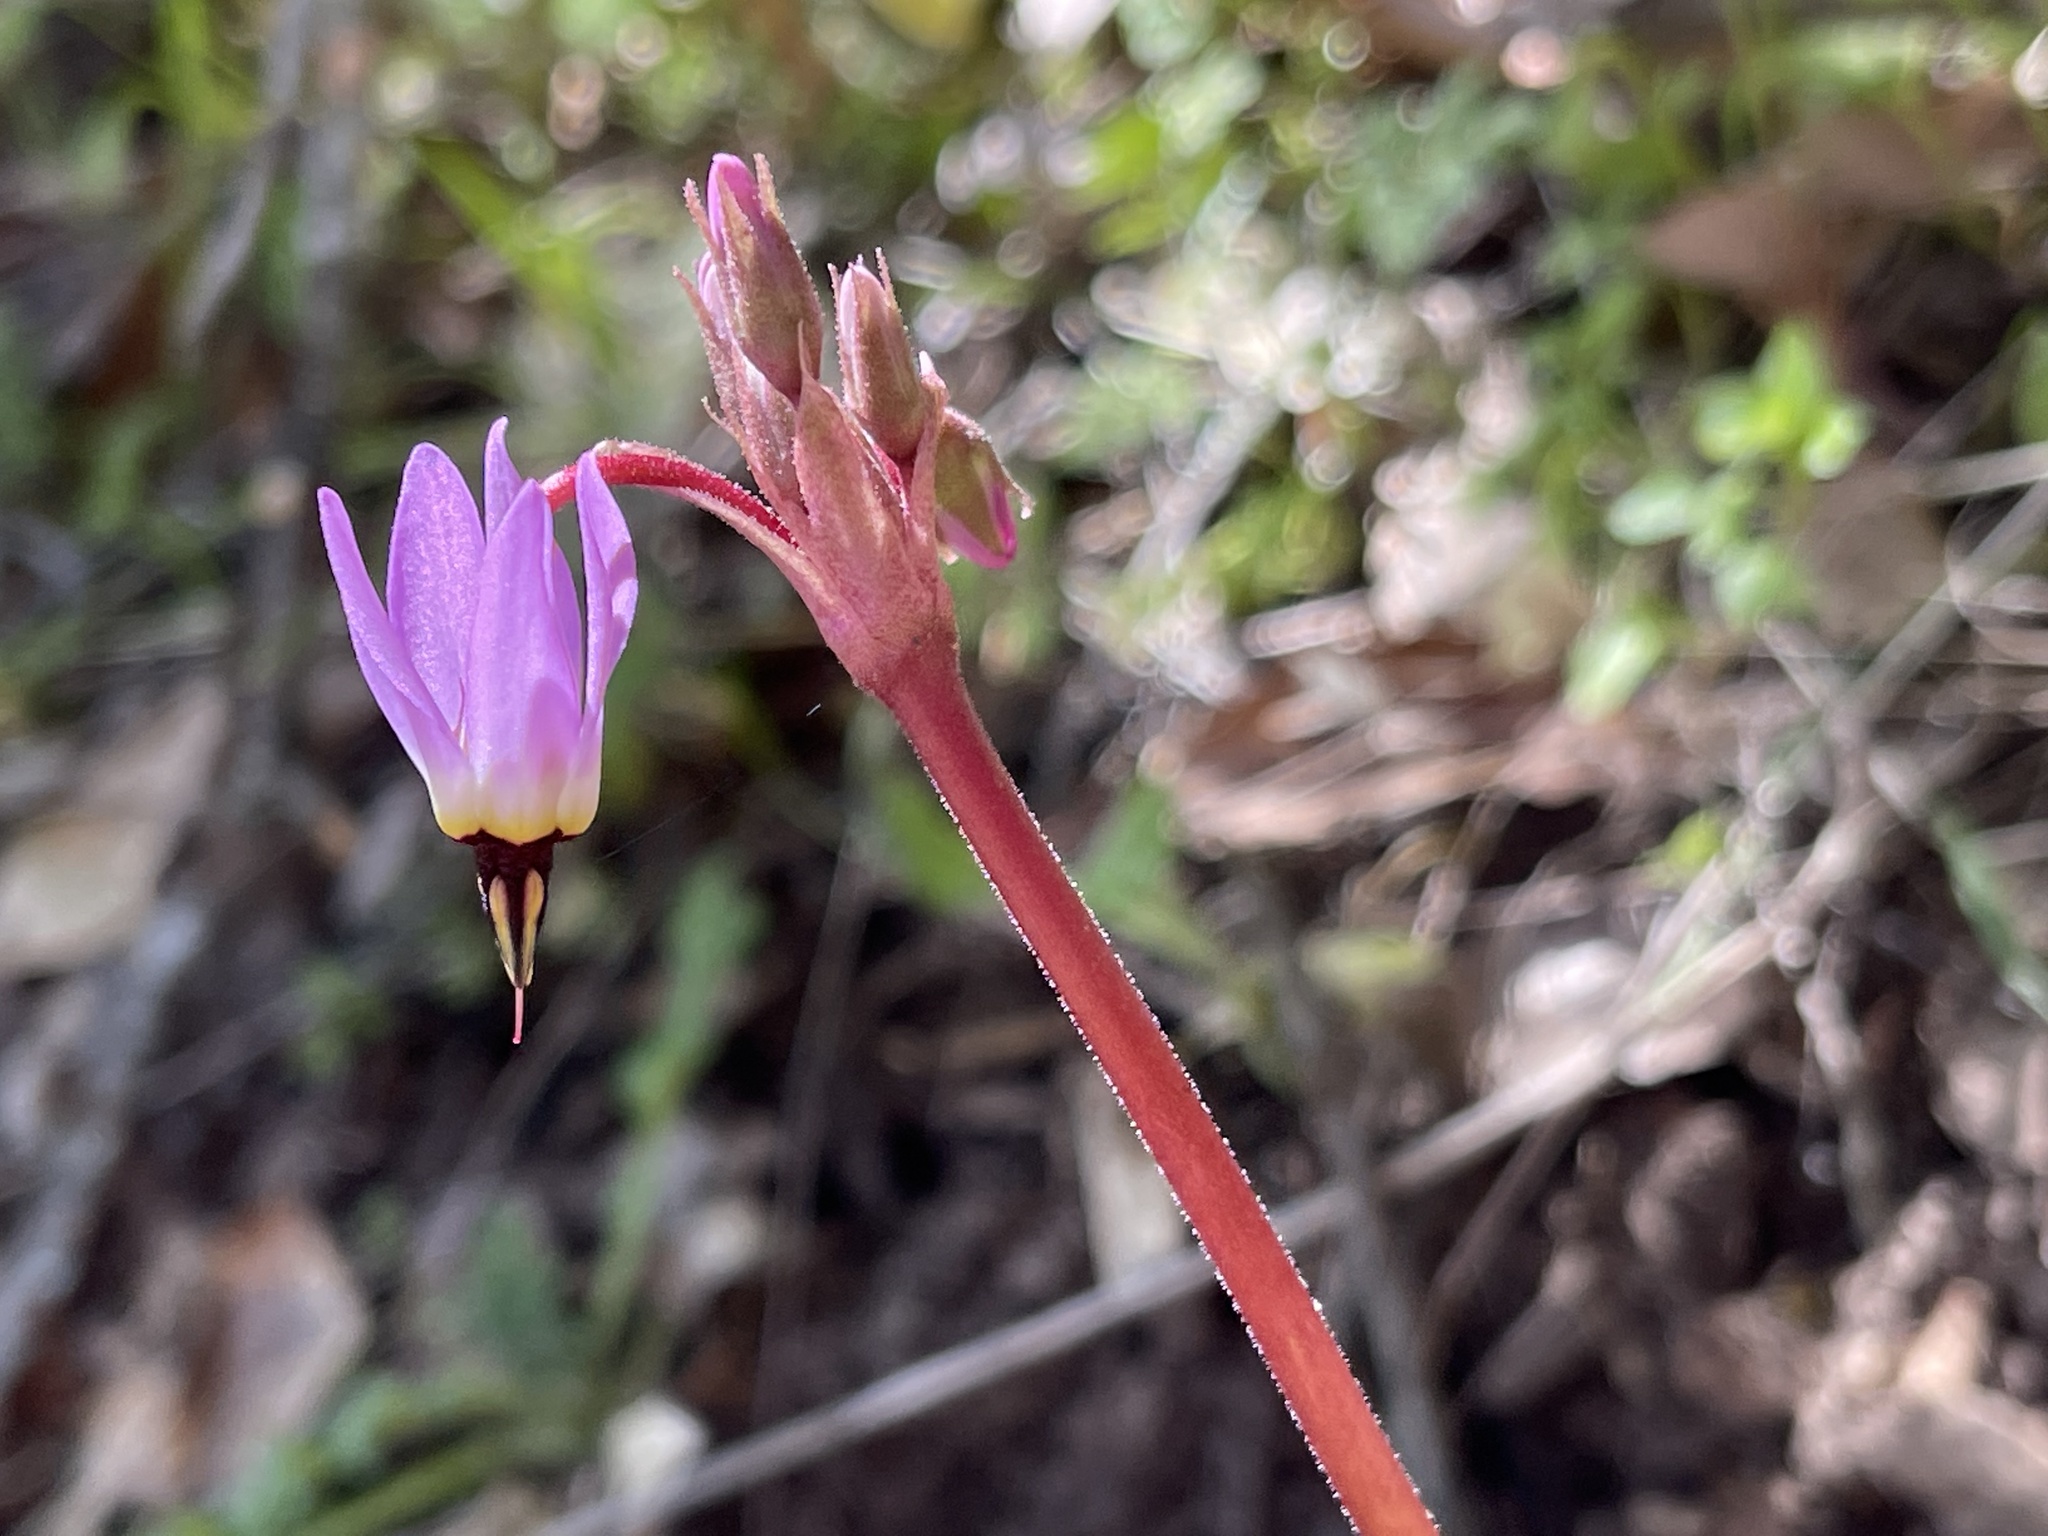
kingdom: Plantae
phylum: Tracheophyta
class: Magnoliopsida
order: Ericales
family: Primulaceae
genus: Dodecatheon
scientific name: Dodecatheon hendersonii
